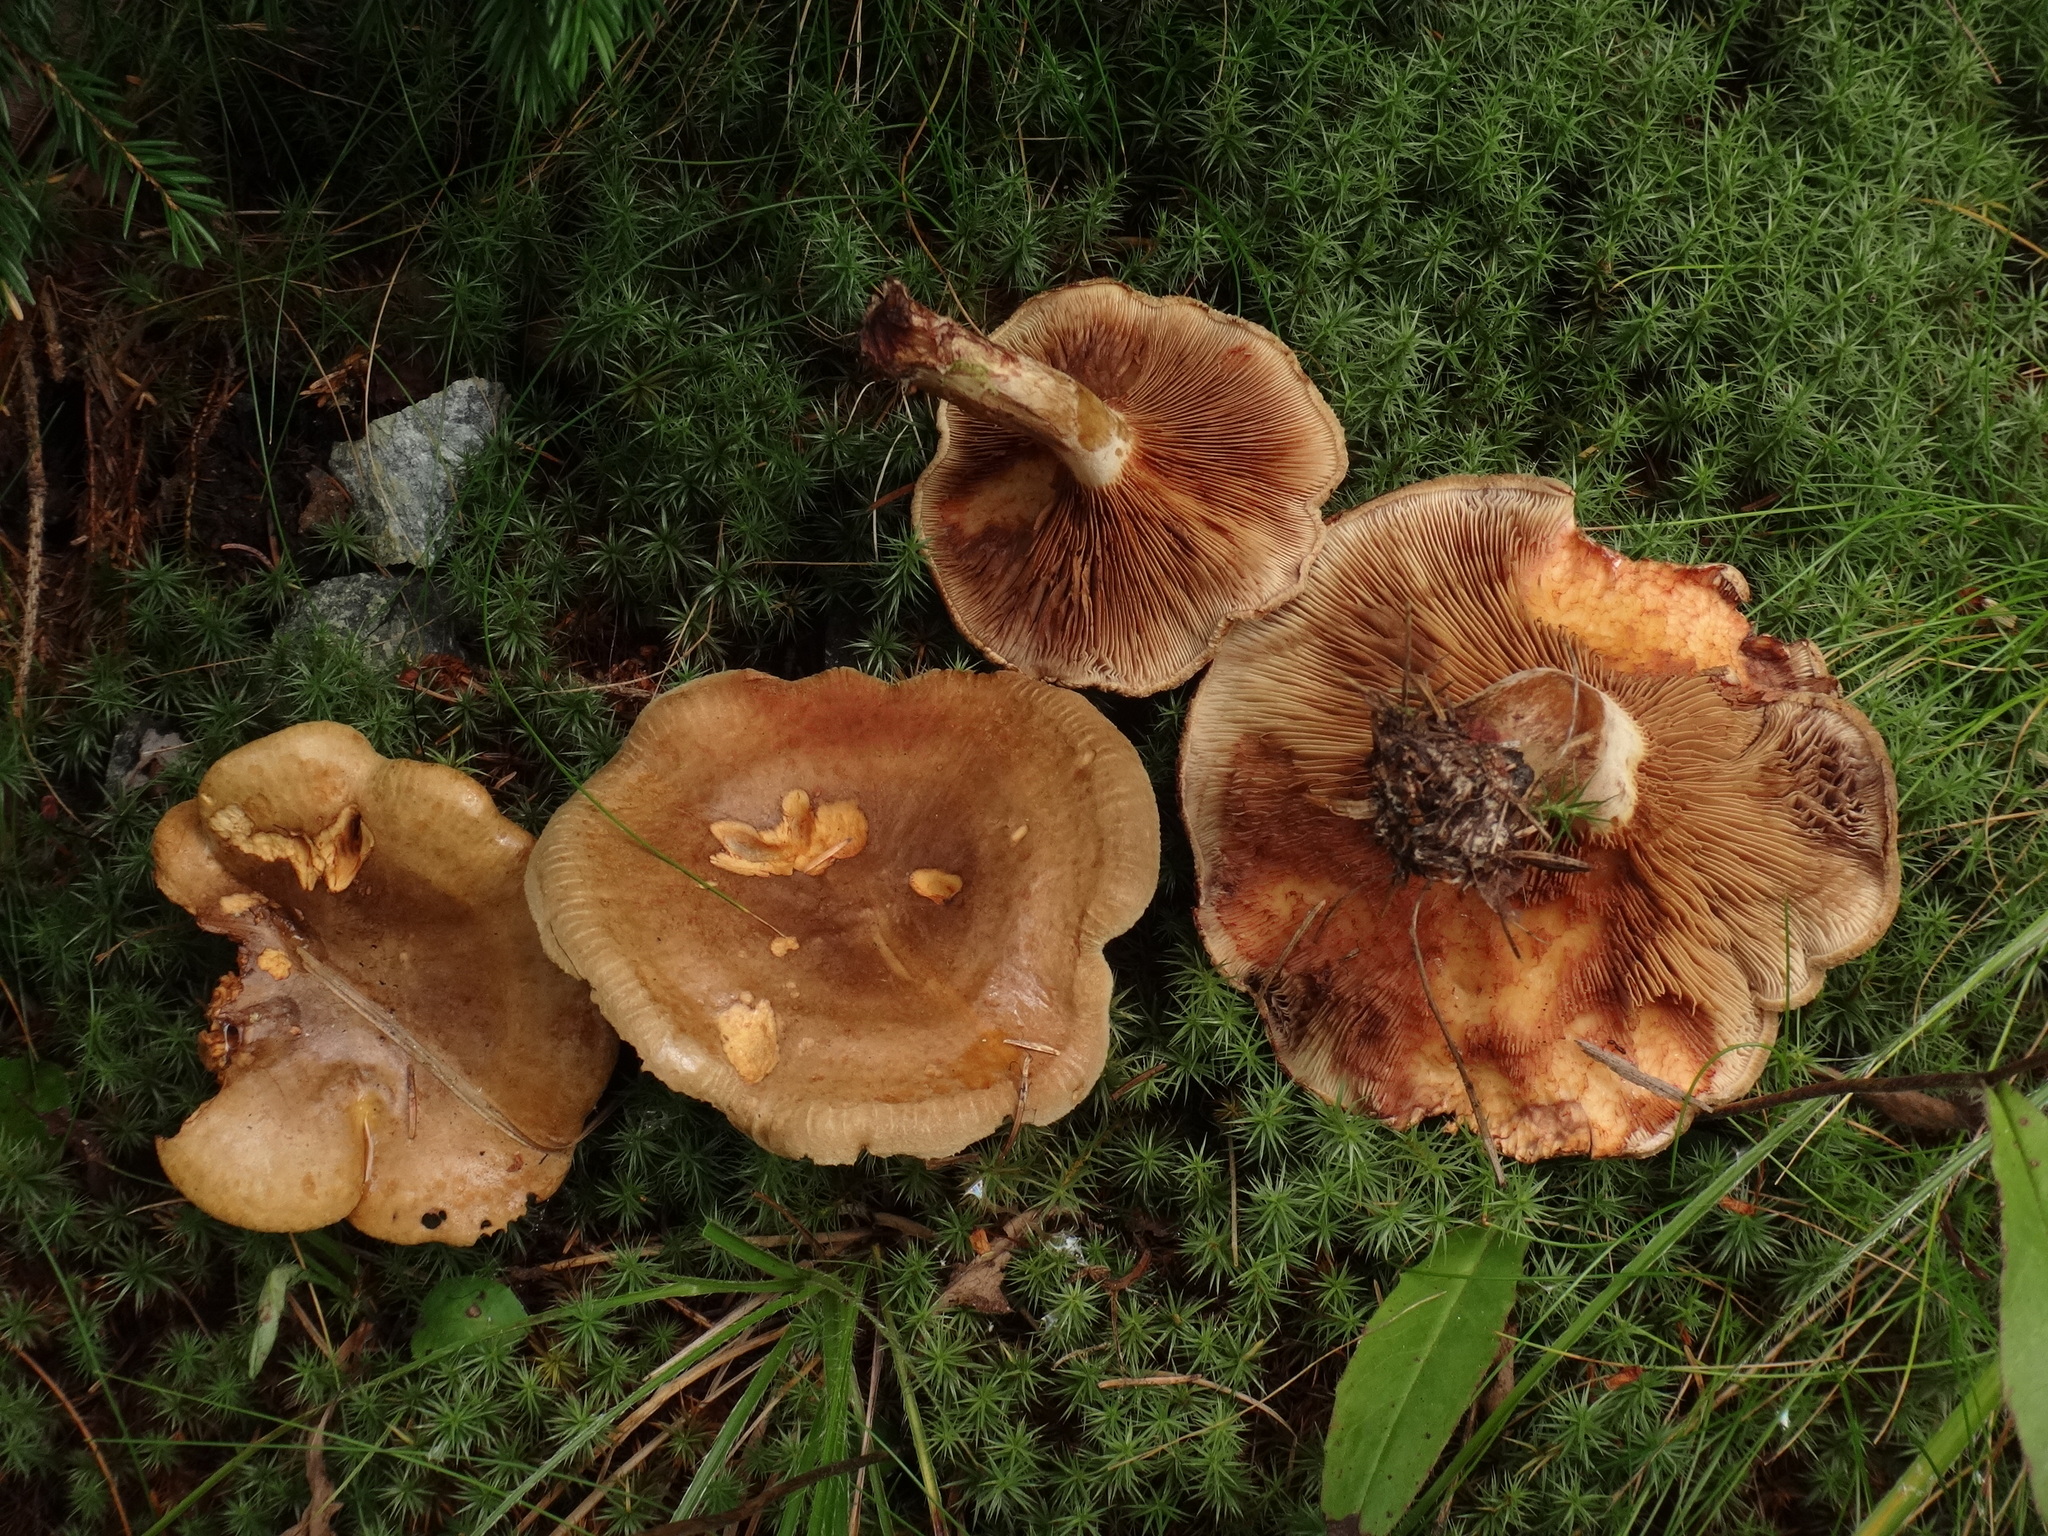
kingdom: Fungi
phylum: Basidiomycota
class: Agaricomycetes
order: Boletales
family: Paxillaceae
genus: Paxillus
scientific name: Paxillus involutus
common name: Brown roll rim
